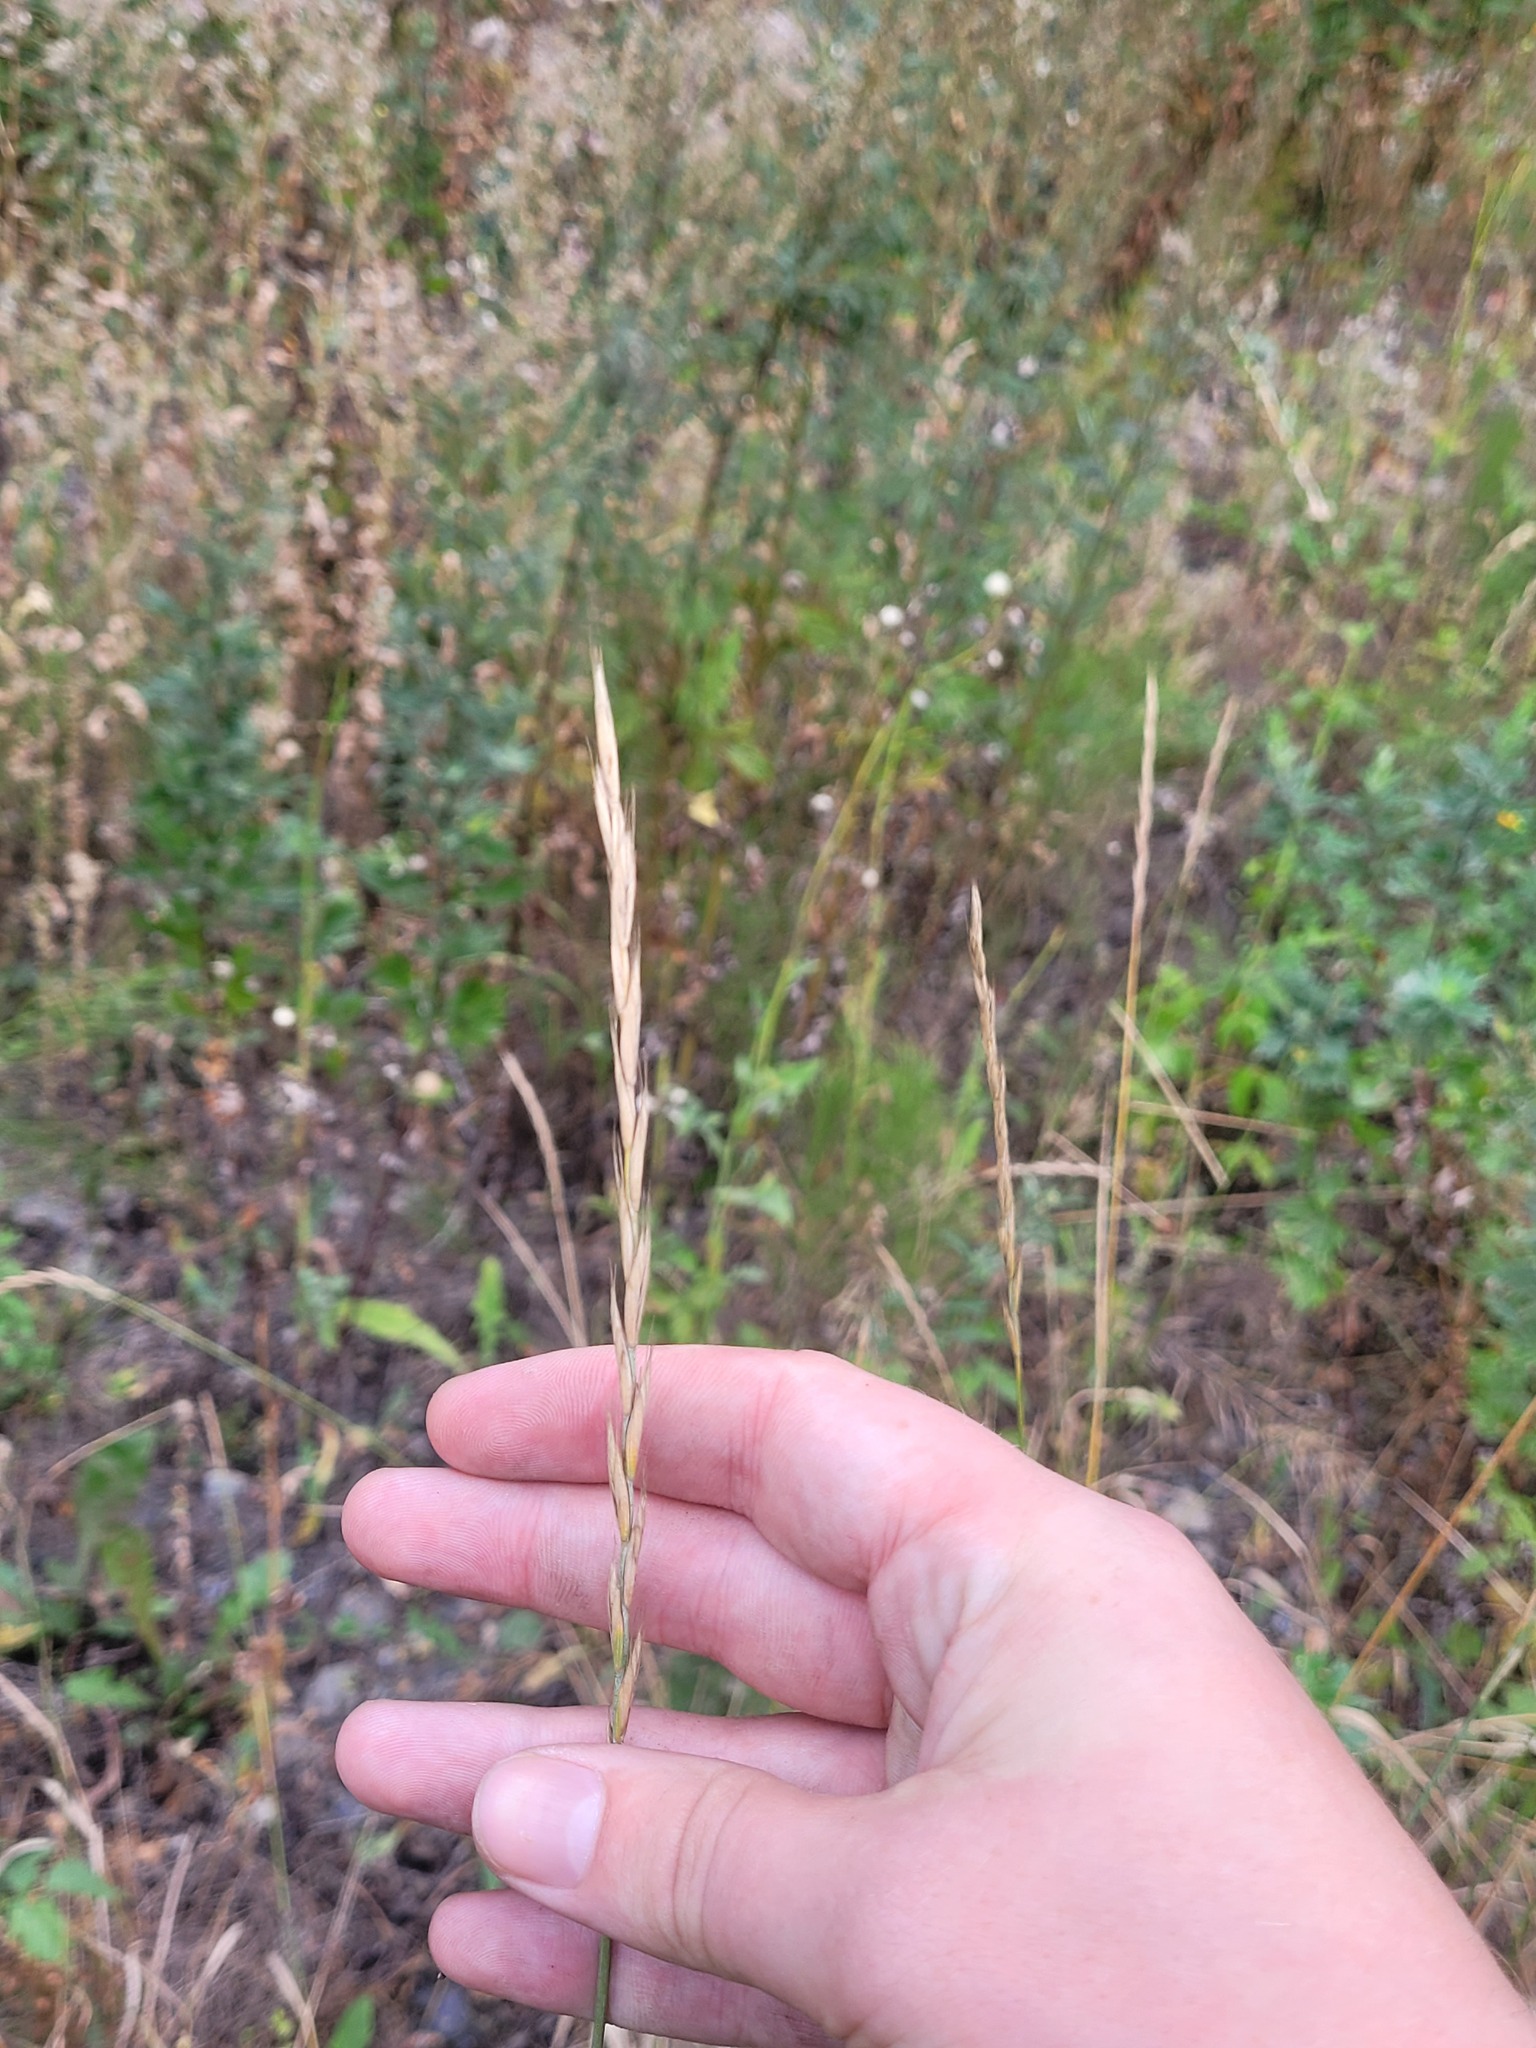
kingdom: Plantae
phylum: Tracheophyta
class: Liliopsida
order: Poales
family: Poaceae
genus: Elymus
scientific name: Elymus repens
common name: Quackgrass
